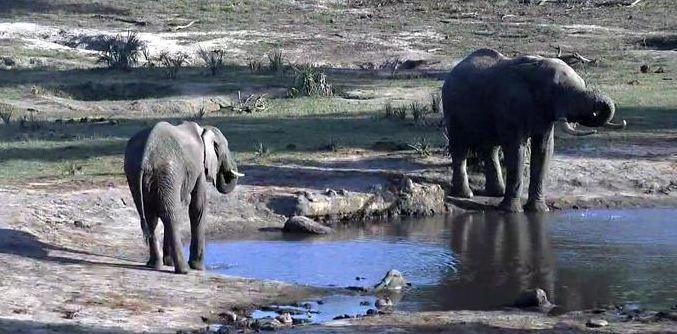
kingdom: Animalia
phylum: Chordata
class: Mammalia
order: Proboscidea
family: Elephantidae
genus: Loxodonta
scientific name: Loxodonta africana
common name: African elephant
